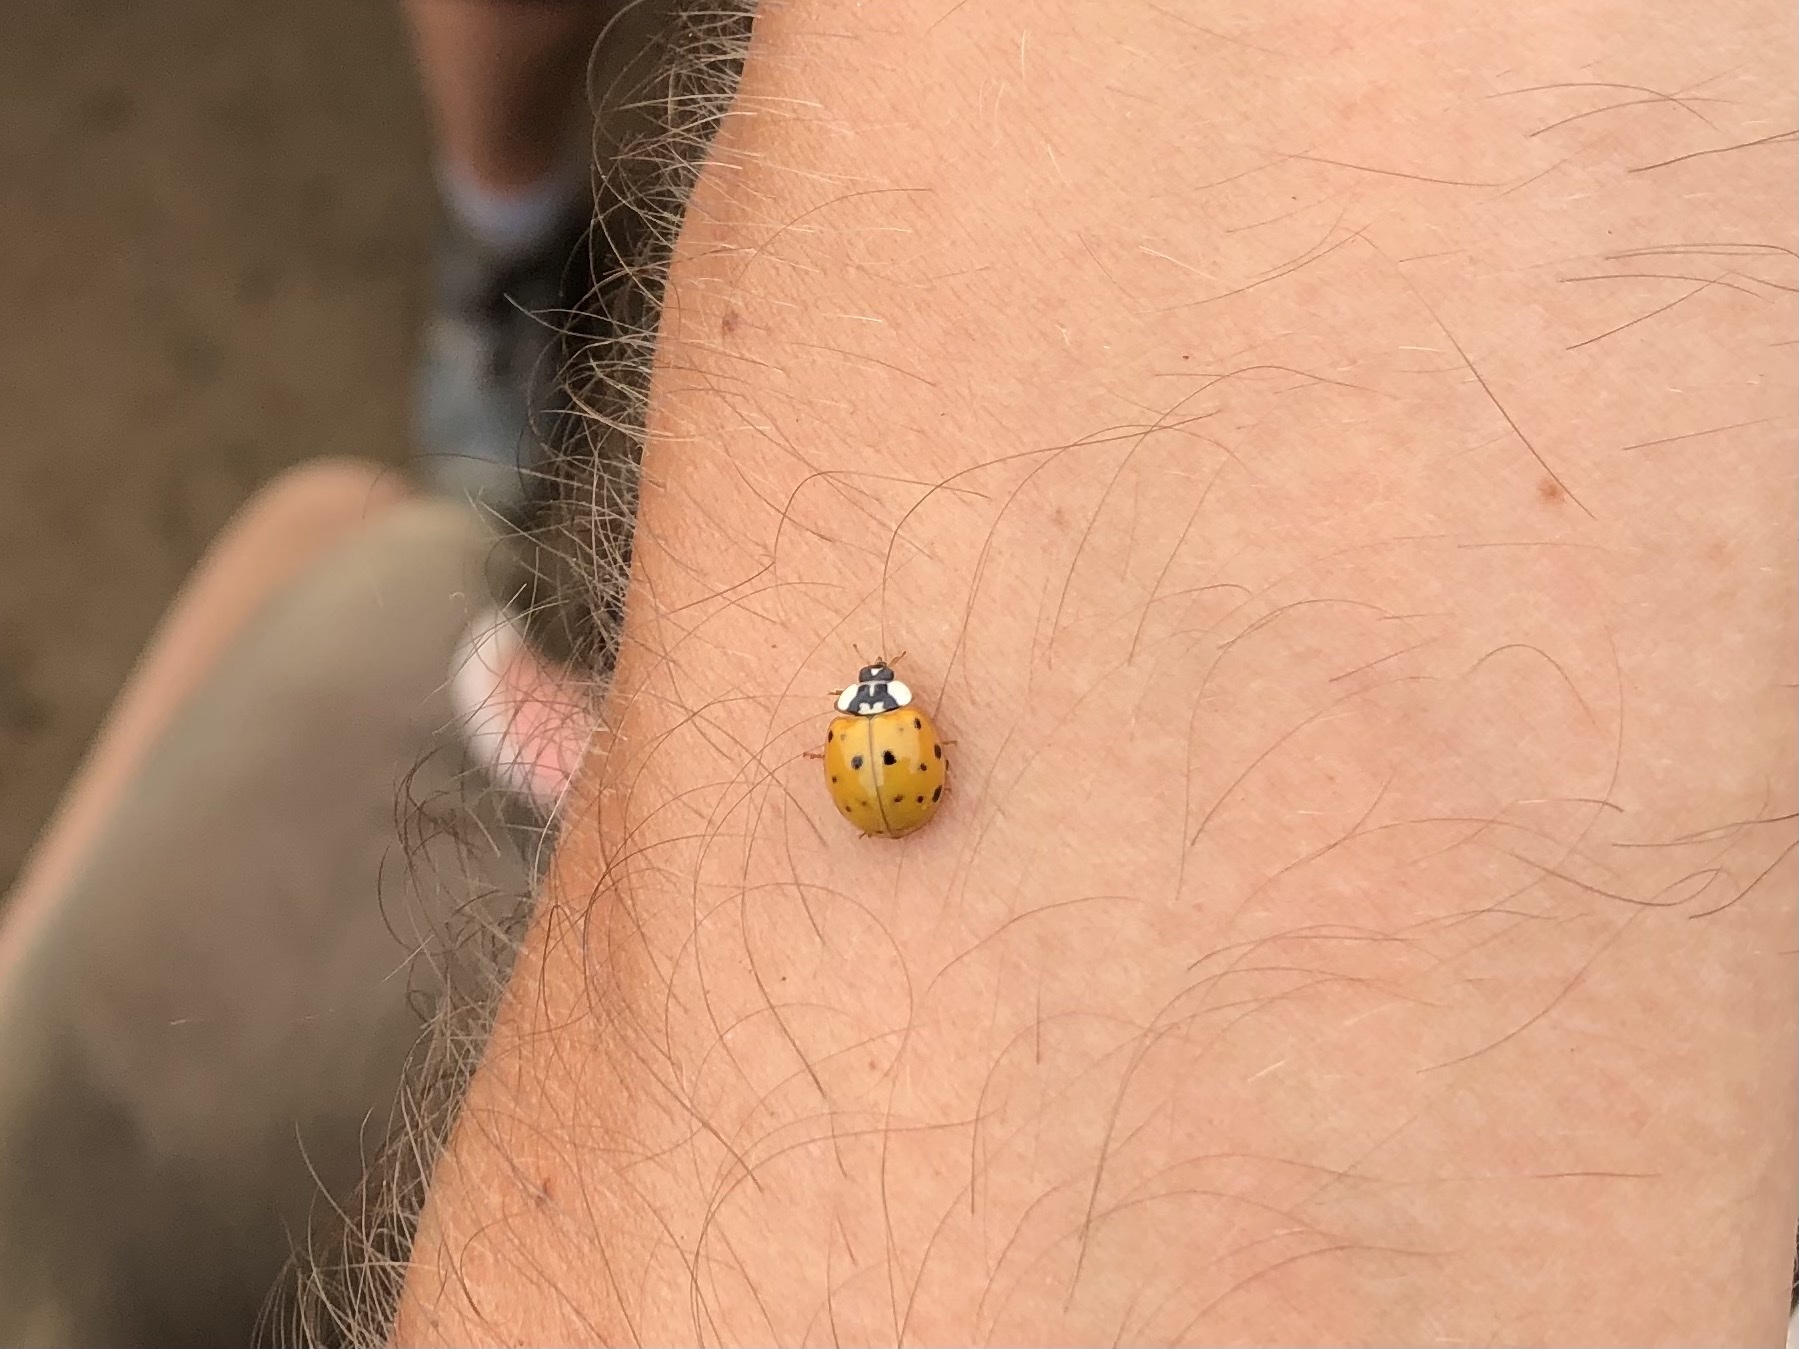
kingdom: Animalia
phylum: Arthropoda
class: Insecta
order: Coleoptera
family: Coccinellidae
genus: Harmonia
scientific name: Harmonia axyridis
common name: Harlequin ladybird
